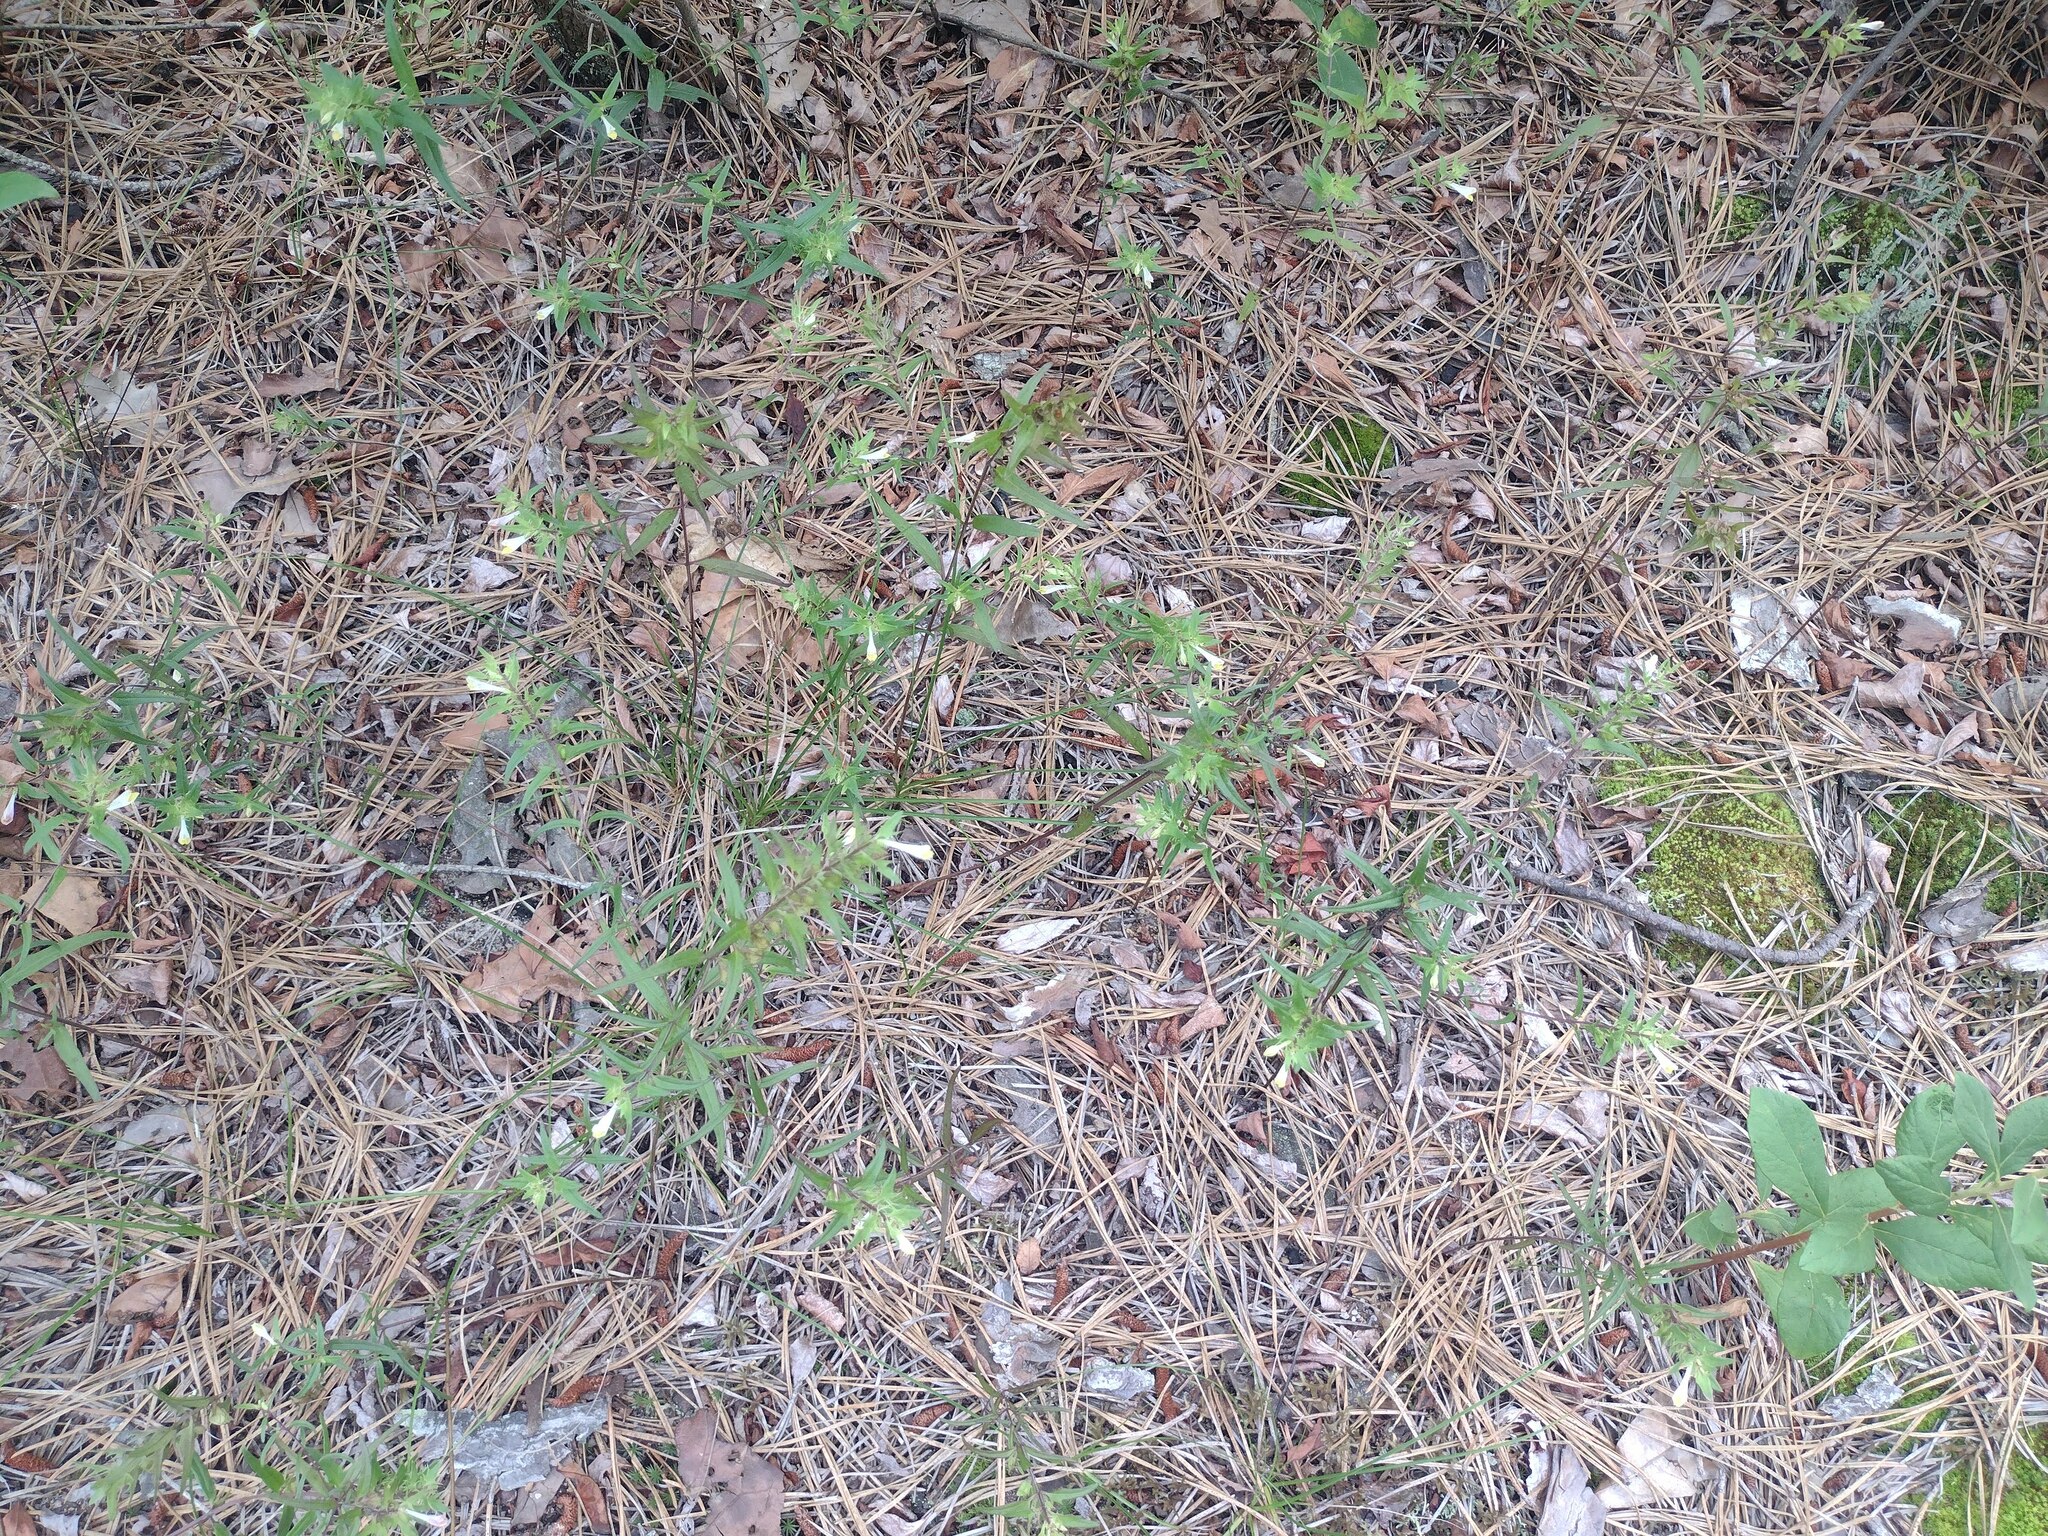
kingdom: Plantae
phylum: Tracheophyta
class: Magnoliopsida
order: Lamiales
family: Orobanchaceae
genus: Melampyrum
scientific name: Melampyrum lineare
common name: American cow-wheat
